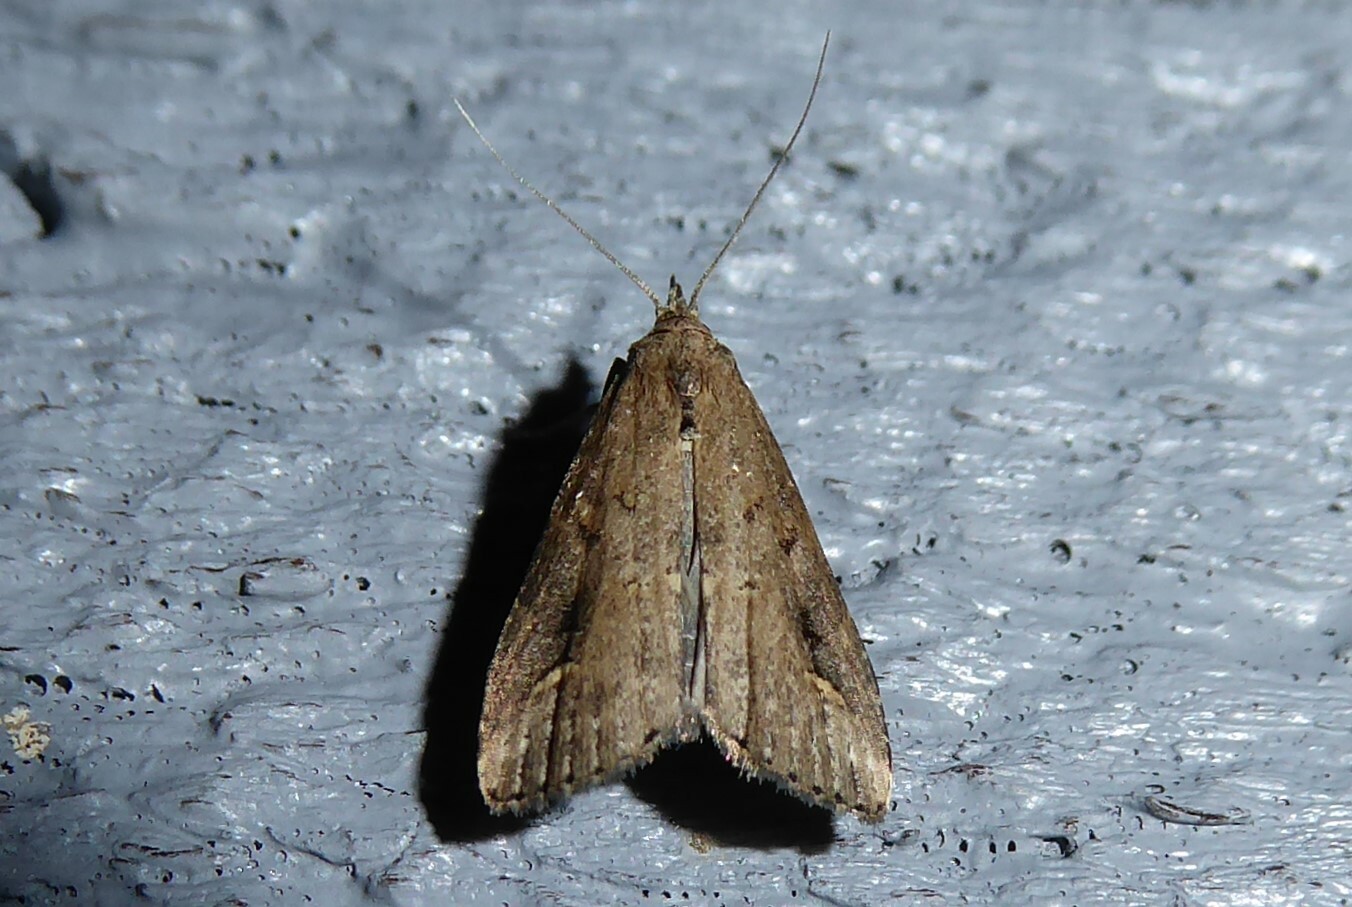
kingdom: Animalia
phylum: Arthropoda
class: Insecta
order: Lepidoptera
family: Erebidae
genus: Schrankia
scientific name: Schrankia costaestrigalis
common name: Pinion-streaked snout
